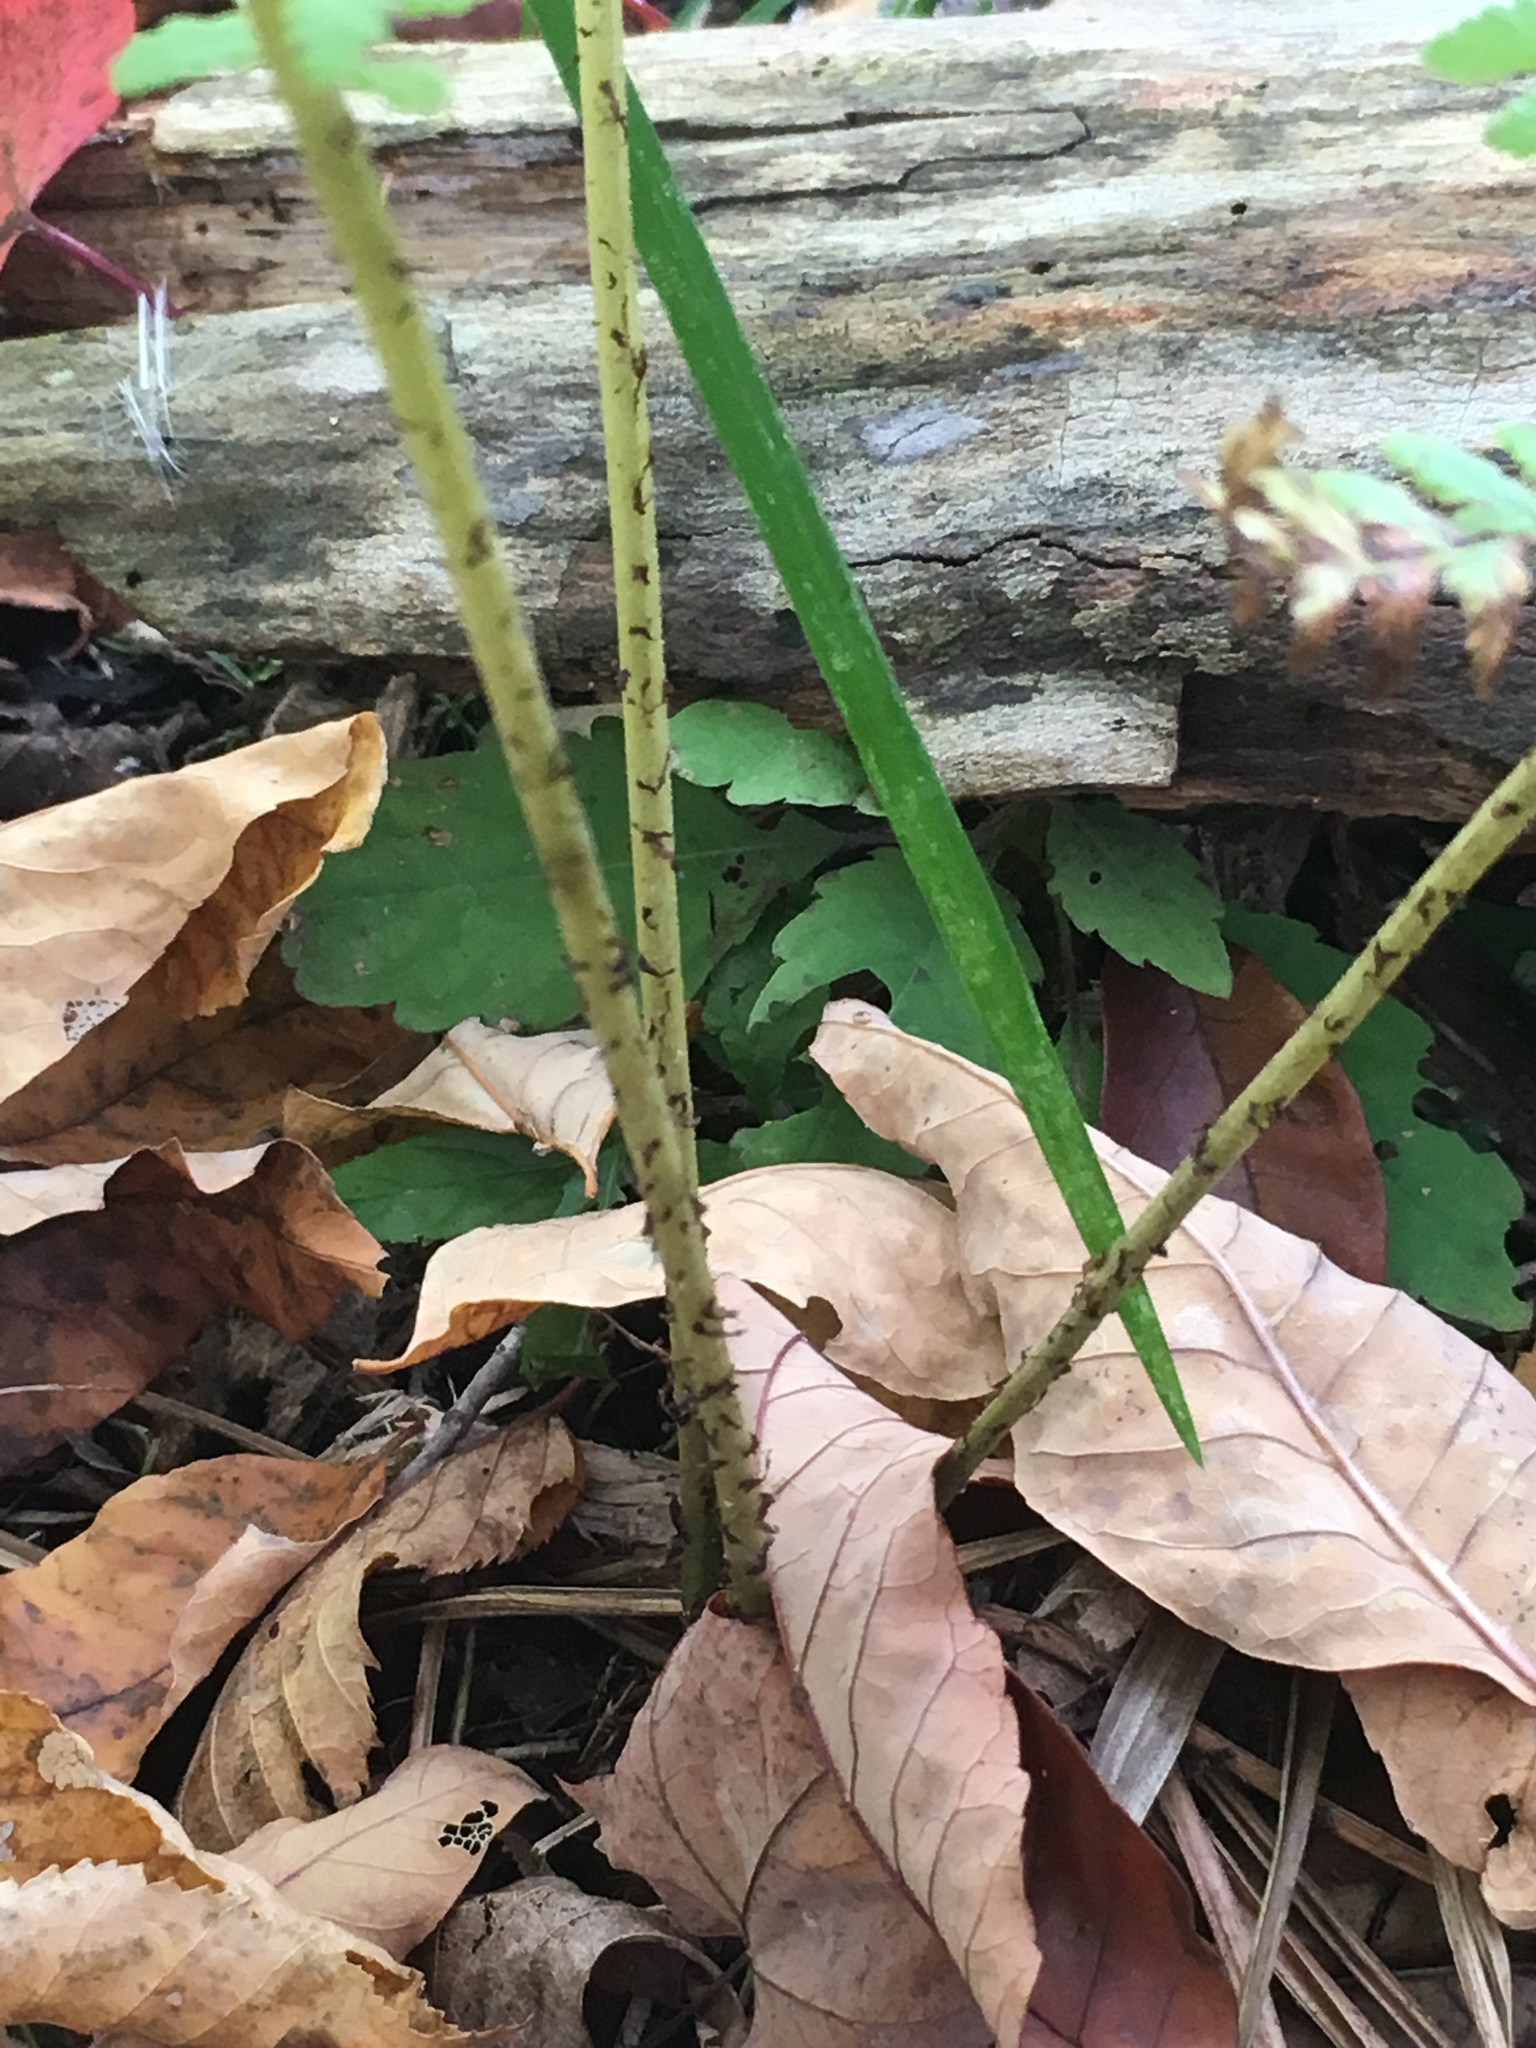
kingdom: Plantae
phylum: Tracheophyta
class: Polypodiopsida
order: Polypodiales
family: Athyriaceae
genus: Athyrium
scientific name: Athyrium angustum
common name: Northern lady fern
